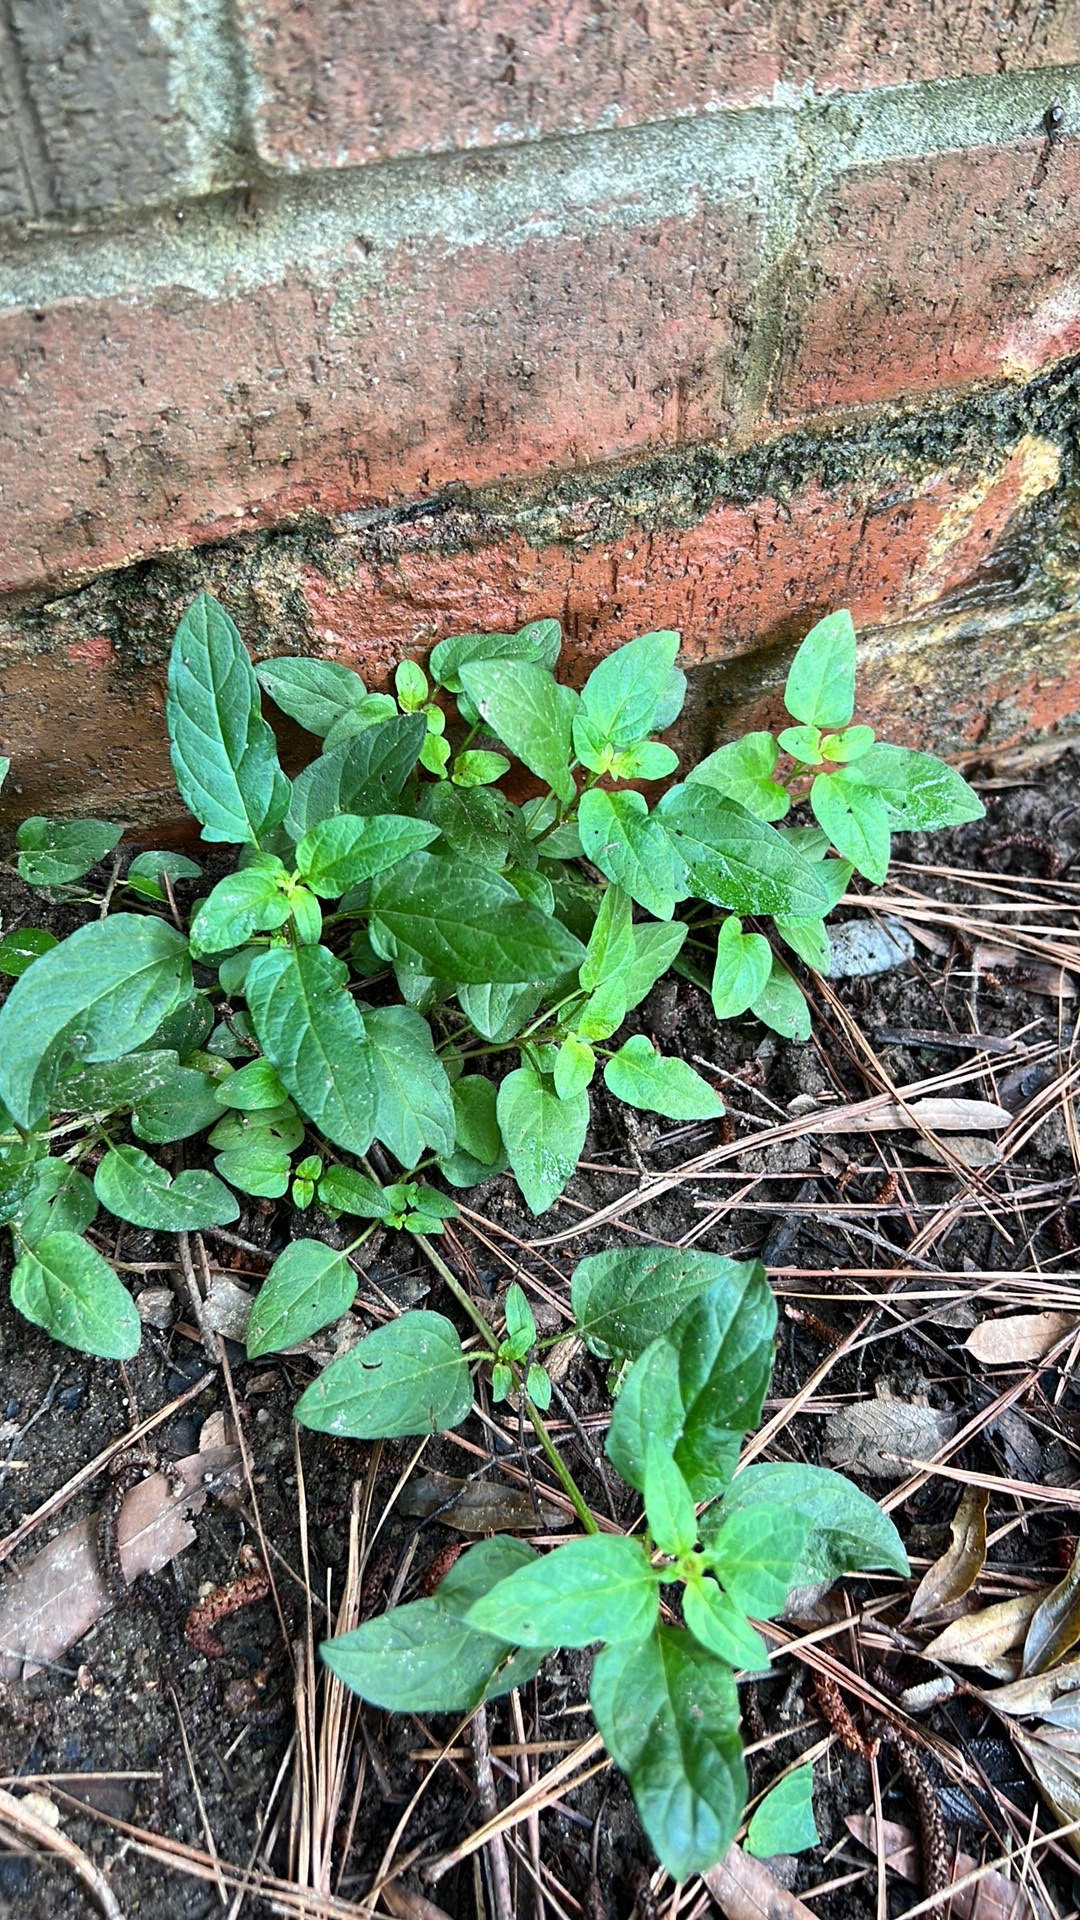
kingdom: Plantae
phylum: Tracheophyta
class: Magnoliopsida
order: Lamiales
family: Lamiaceae
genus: Prunella
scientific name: Prunella vulgaris
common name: Heal-all
